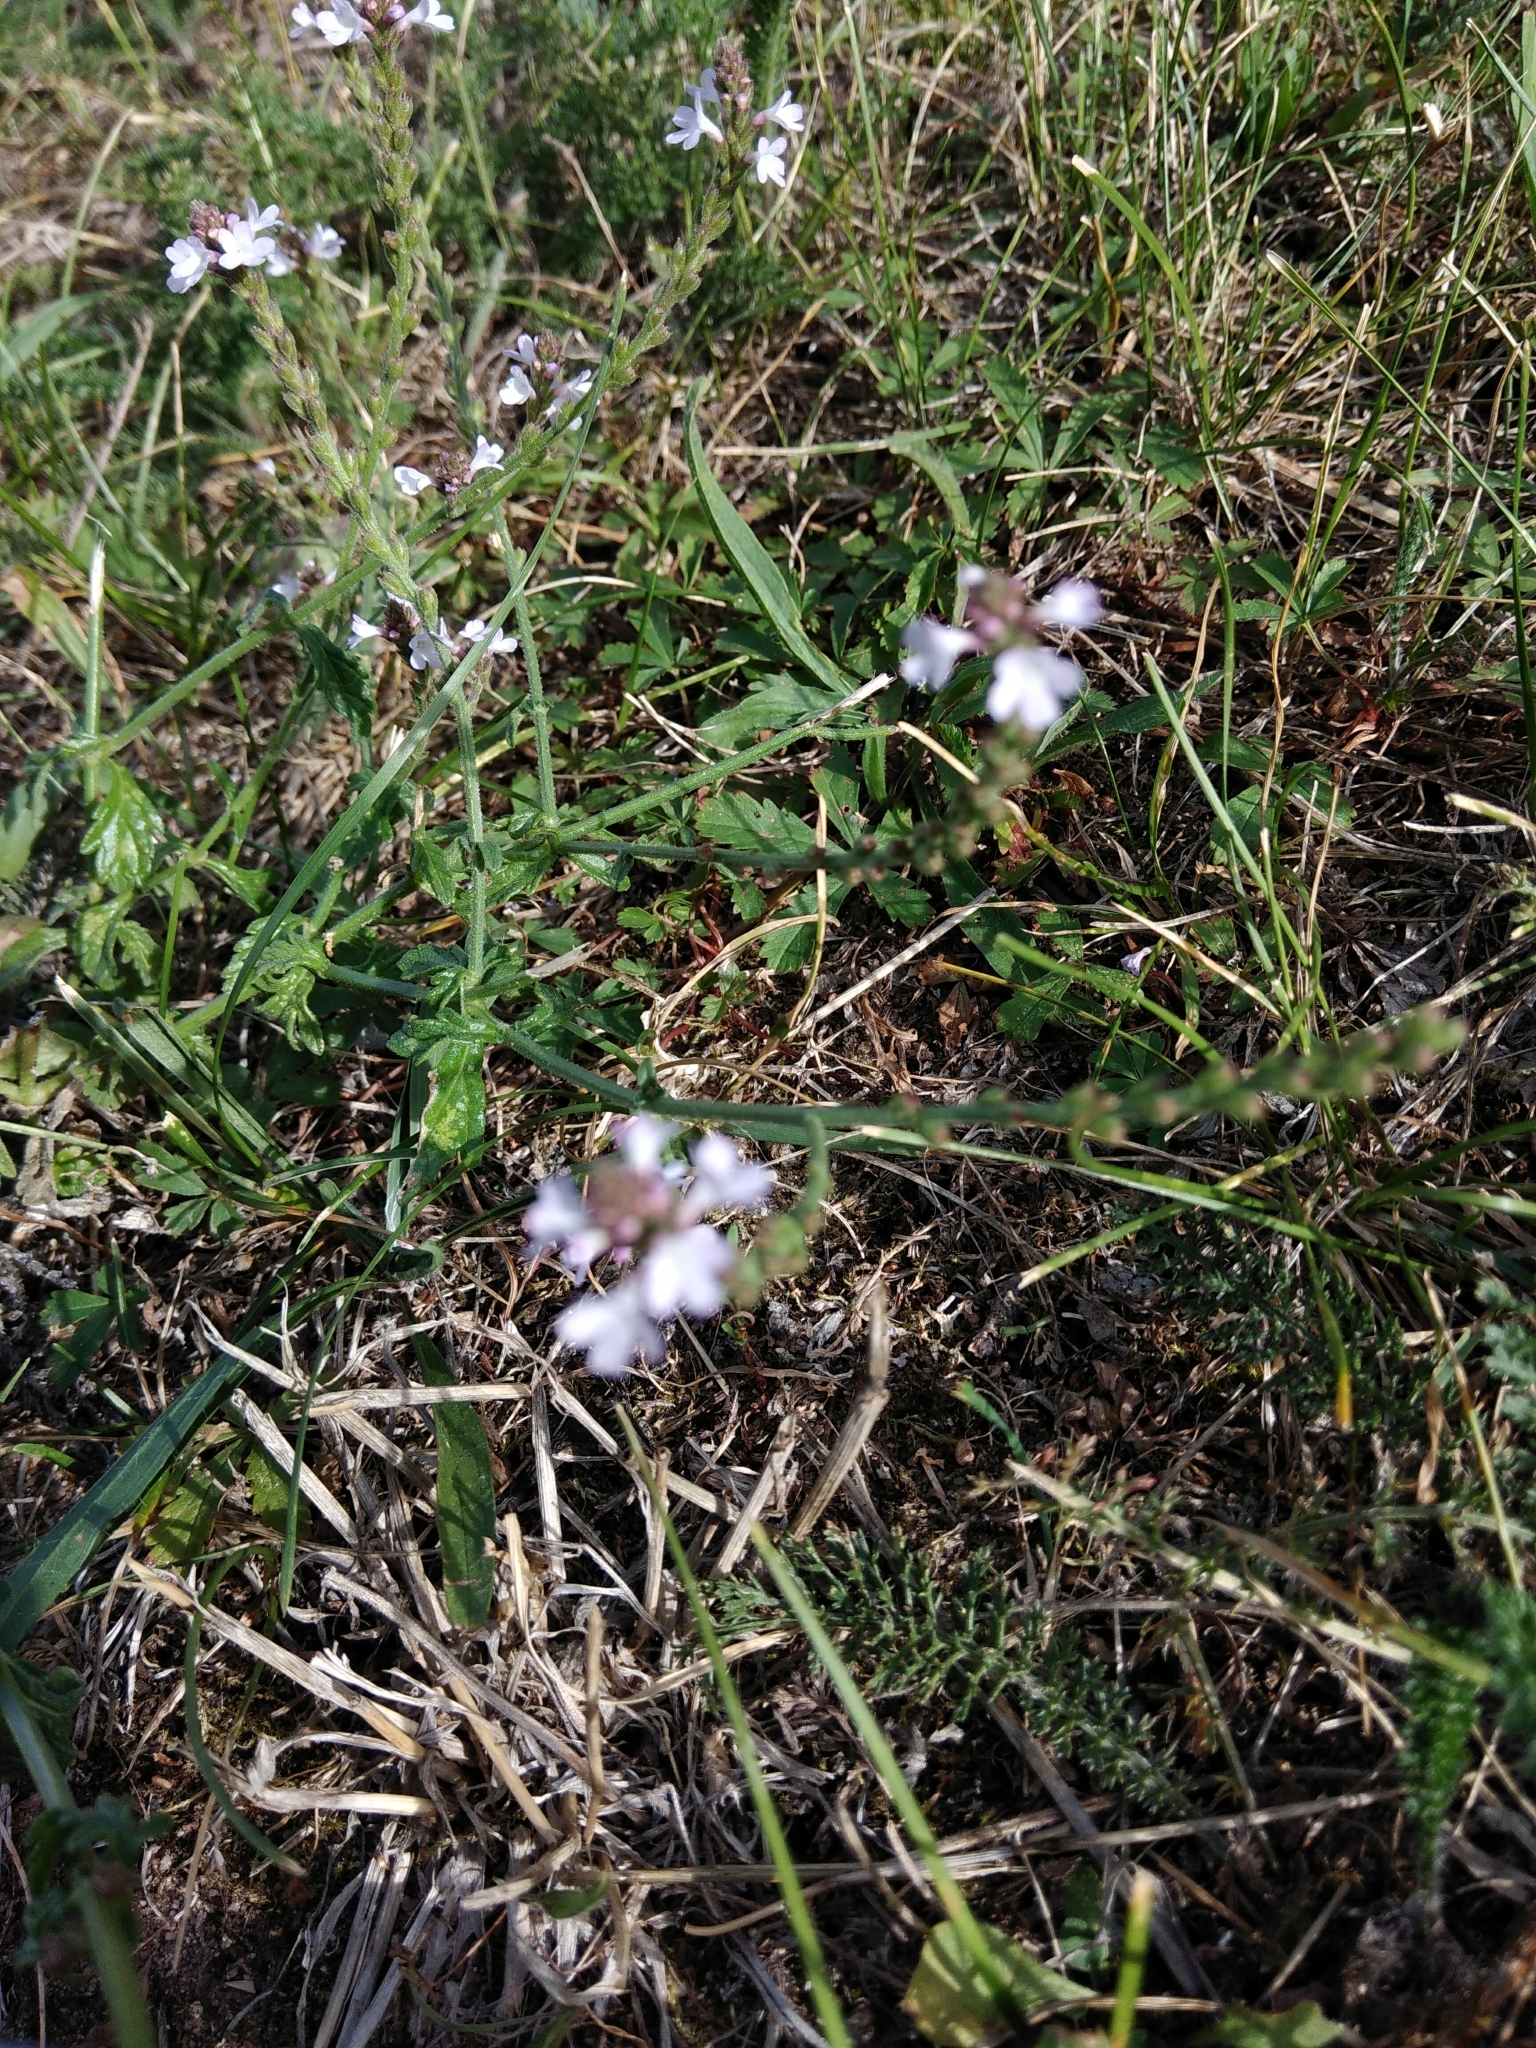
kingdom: Plantae
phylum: Tracheophyta
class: Magnoliopsida
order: Lamiales
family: Verbenaceae
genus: Verbena
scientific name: Verbena officinalis
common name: Vervain
